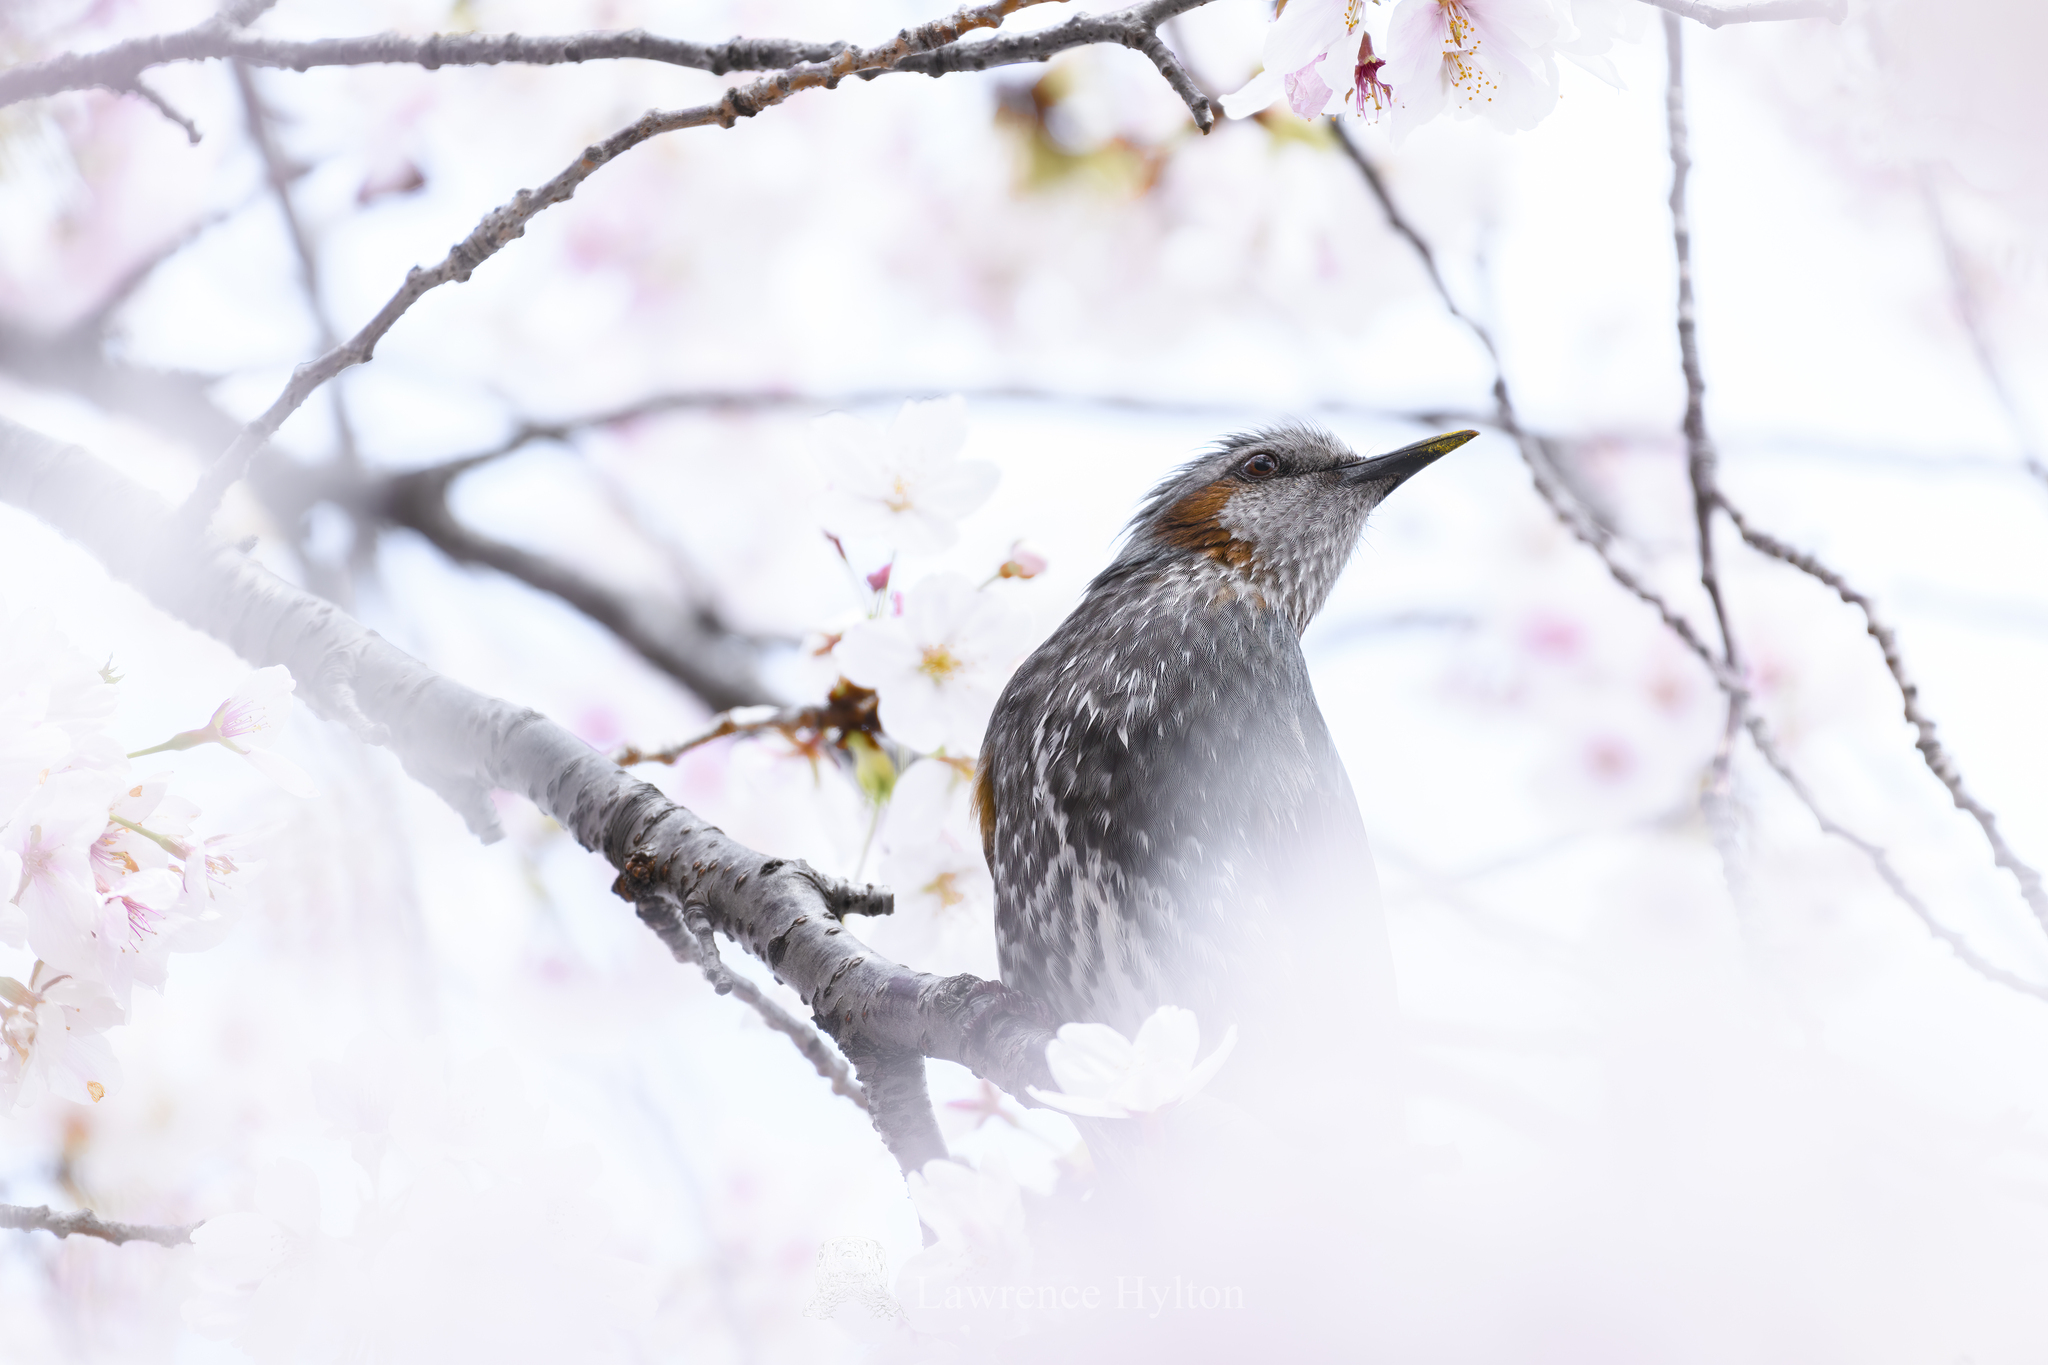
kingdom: Animalia
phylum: Chordata
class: Aves
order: Passeriformes
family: Pycnonotidae
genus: Hypsipetes
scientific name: Hypsipetes amaurotis
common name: Brown-eared bulbul
